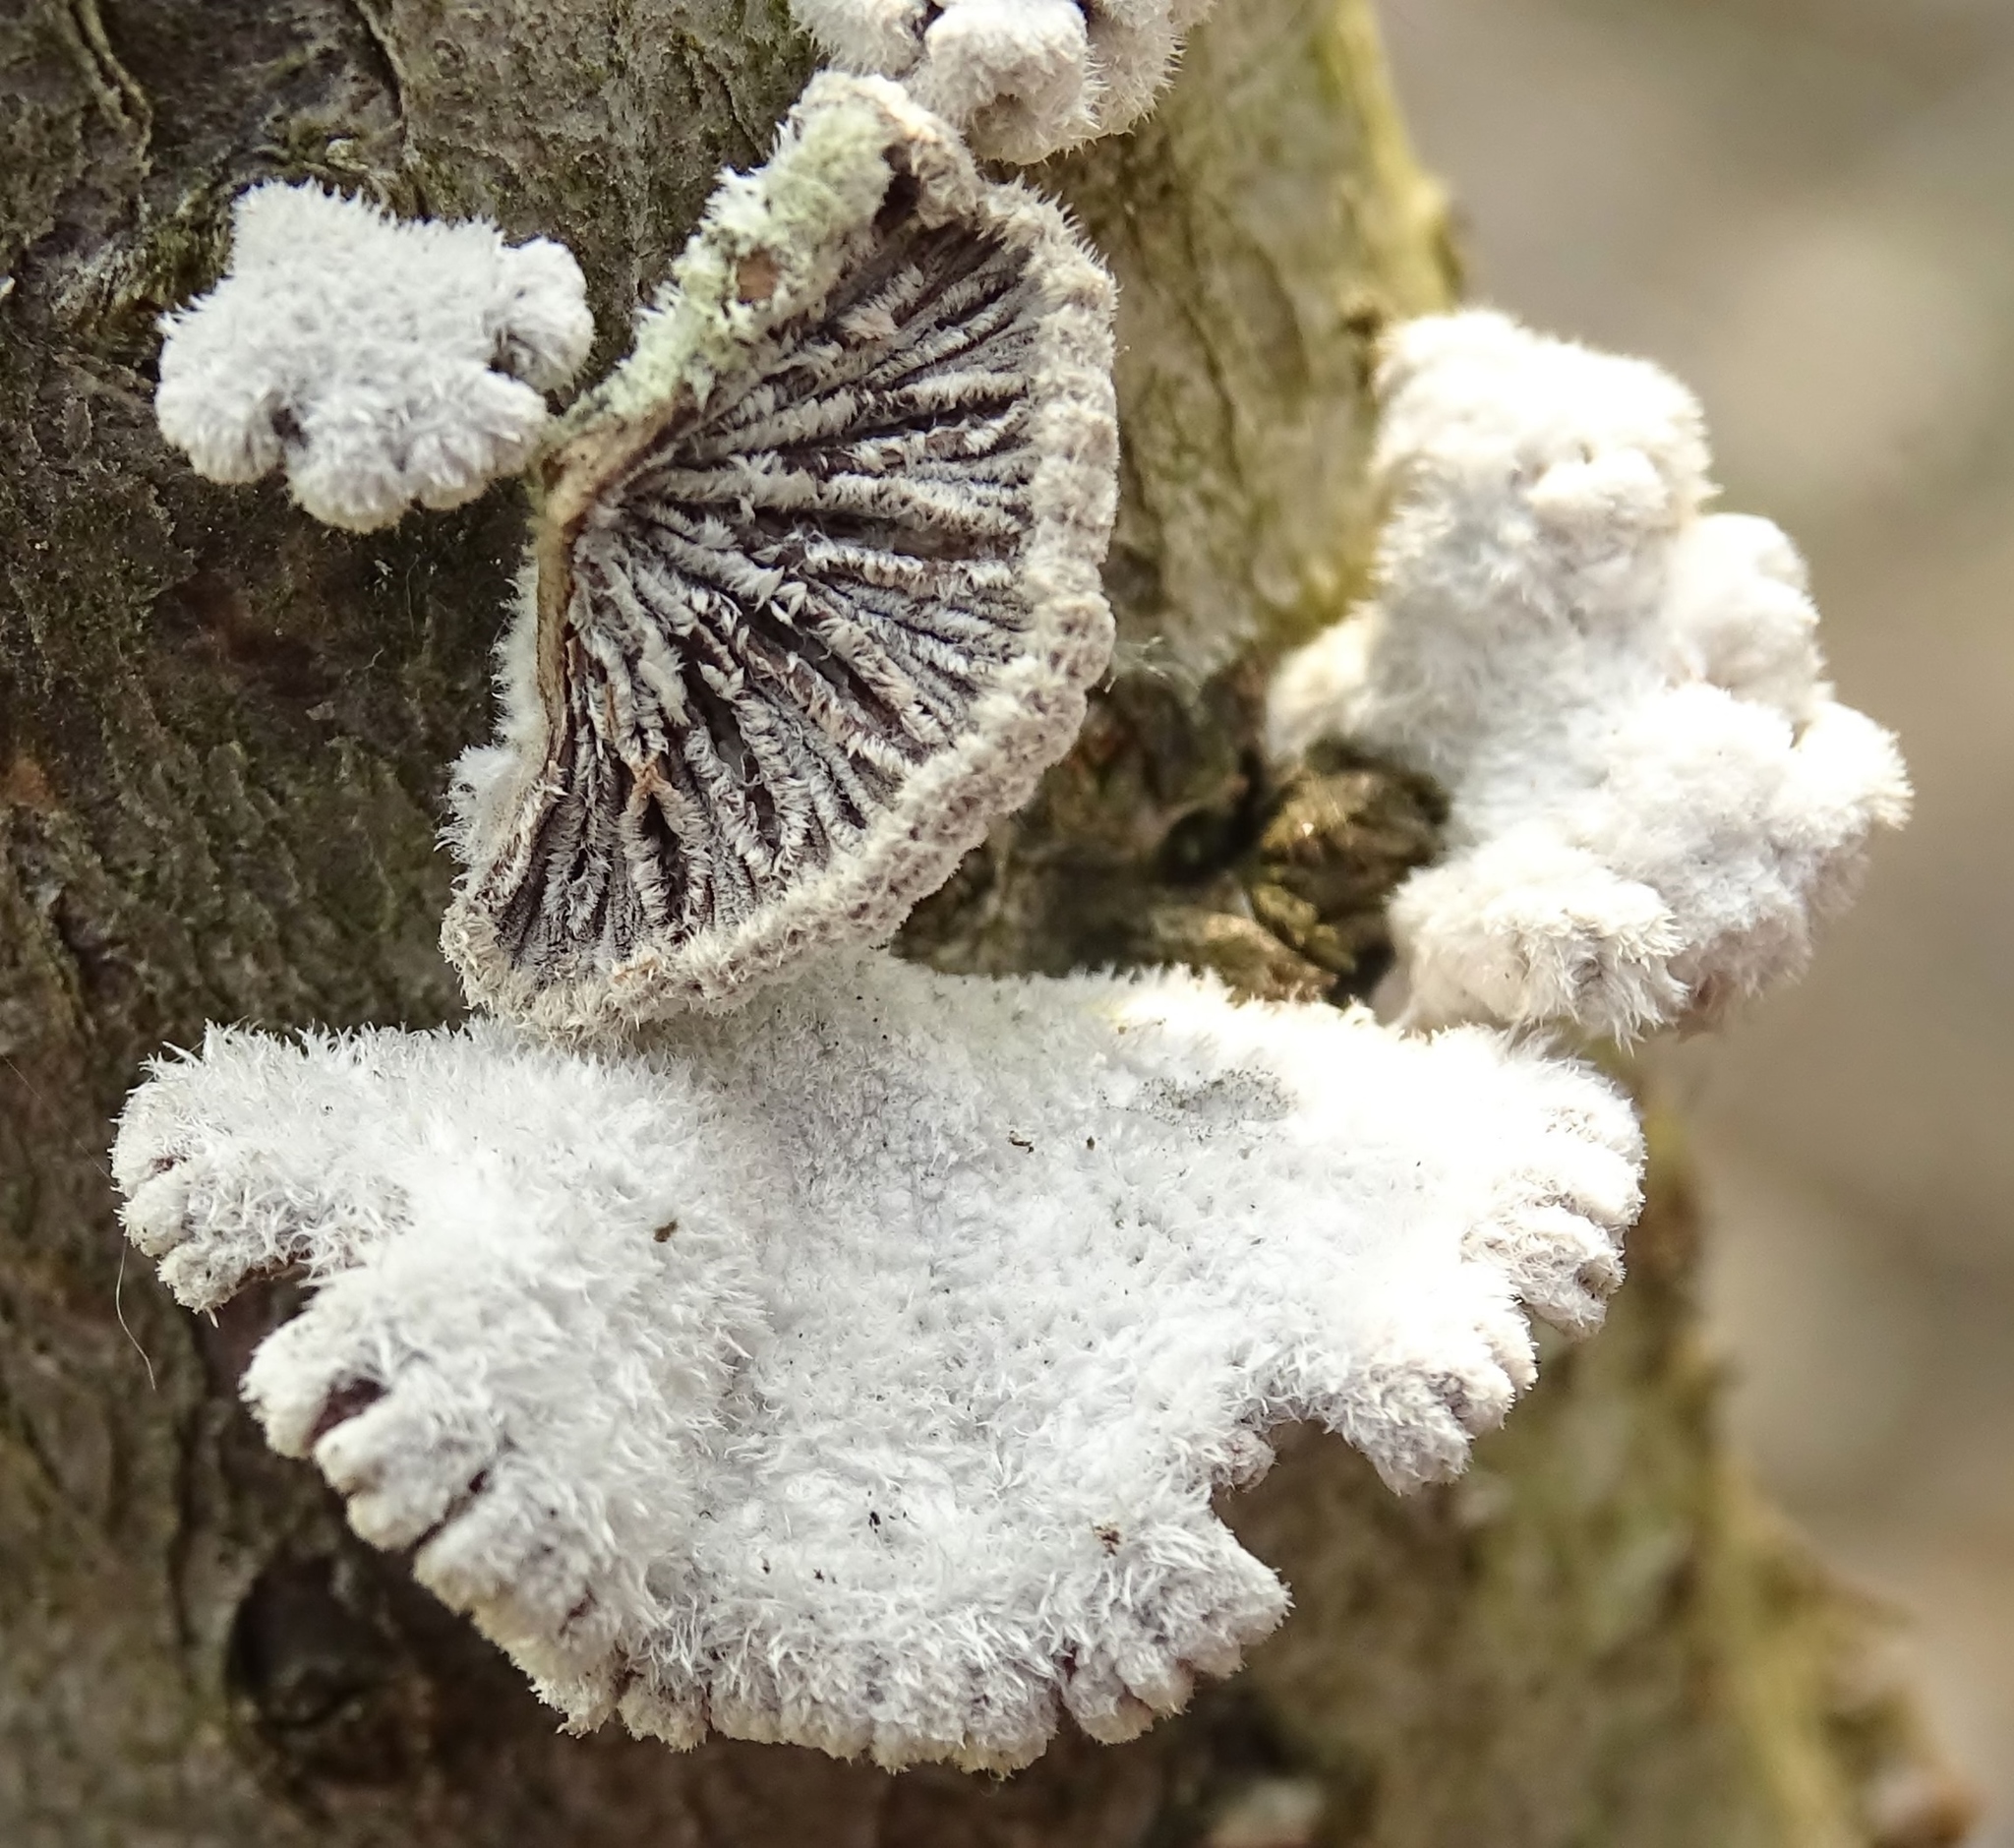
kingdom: Fungi
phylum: Basidiomycota
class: Agaricomycetes
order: Agaricales
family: Schizophyllaceae
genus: Schizophyllum
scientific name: Schizophyllum commune
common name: Common porecrust
